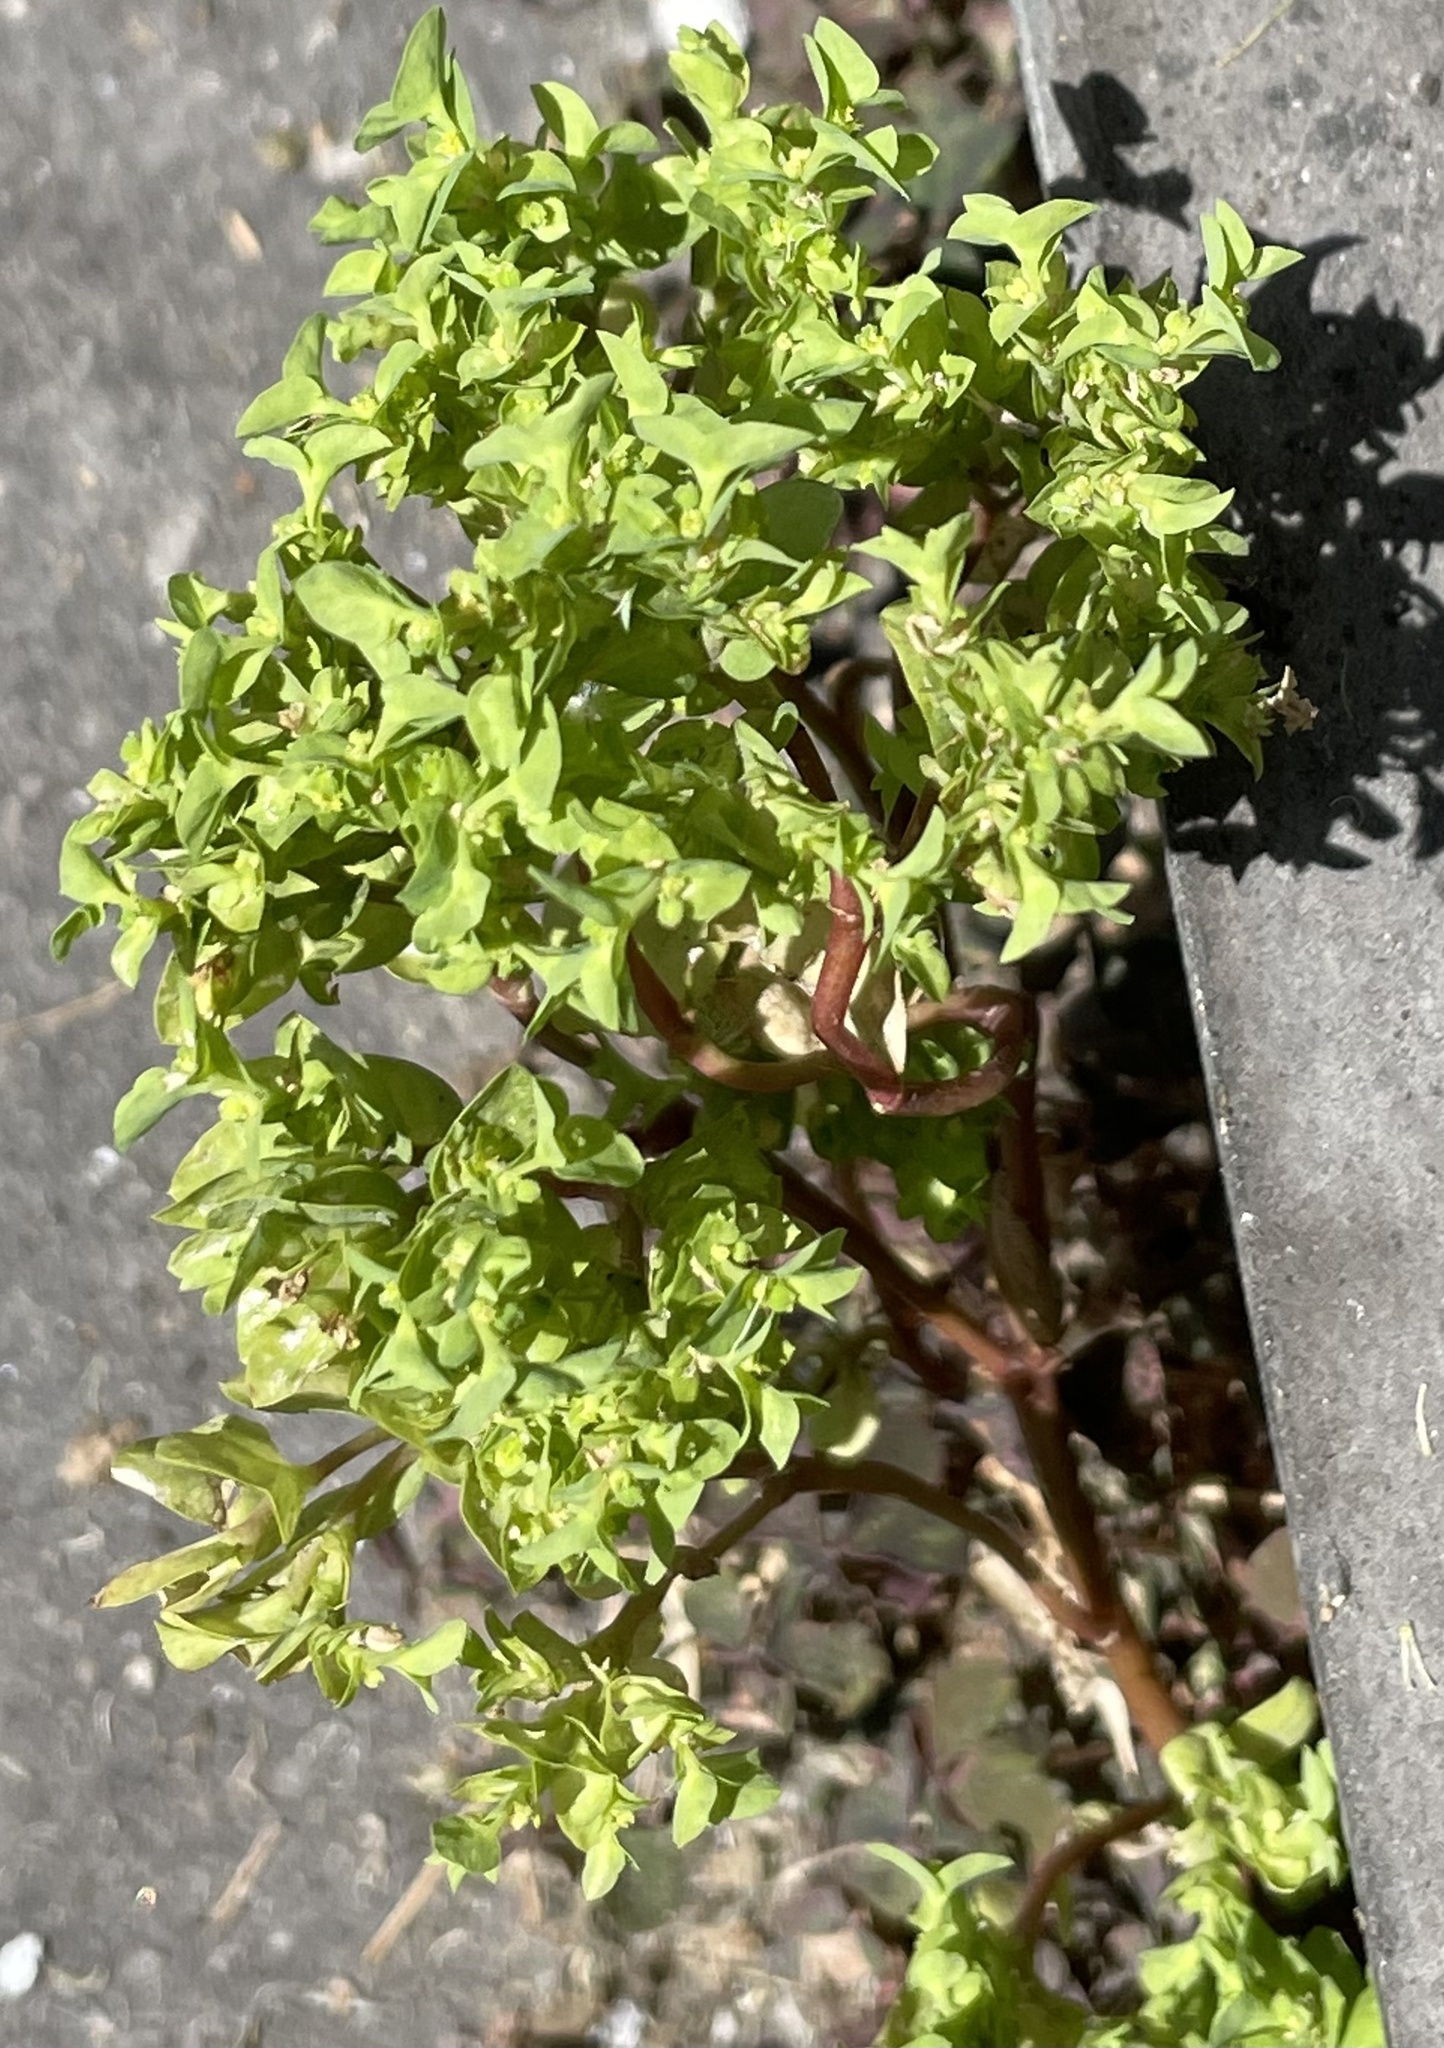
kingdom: Plantae
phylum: Tracheophyta
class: Magnoliopsida
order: Malpighiales
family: Euphorbiaceae
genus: Euphorbia
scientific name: Euphorbia peplus
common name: Petty spurge
